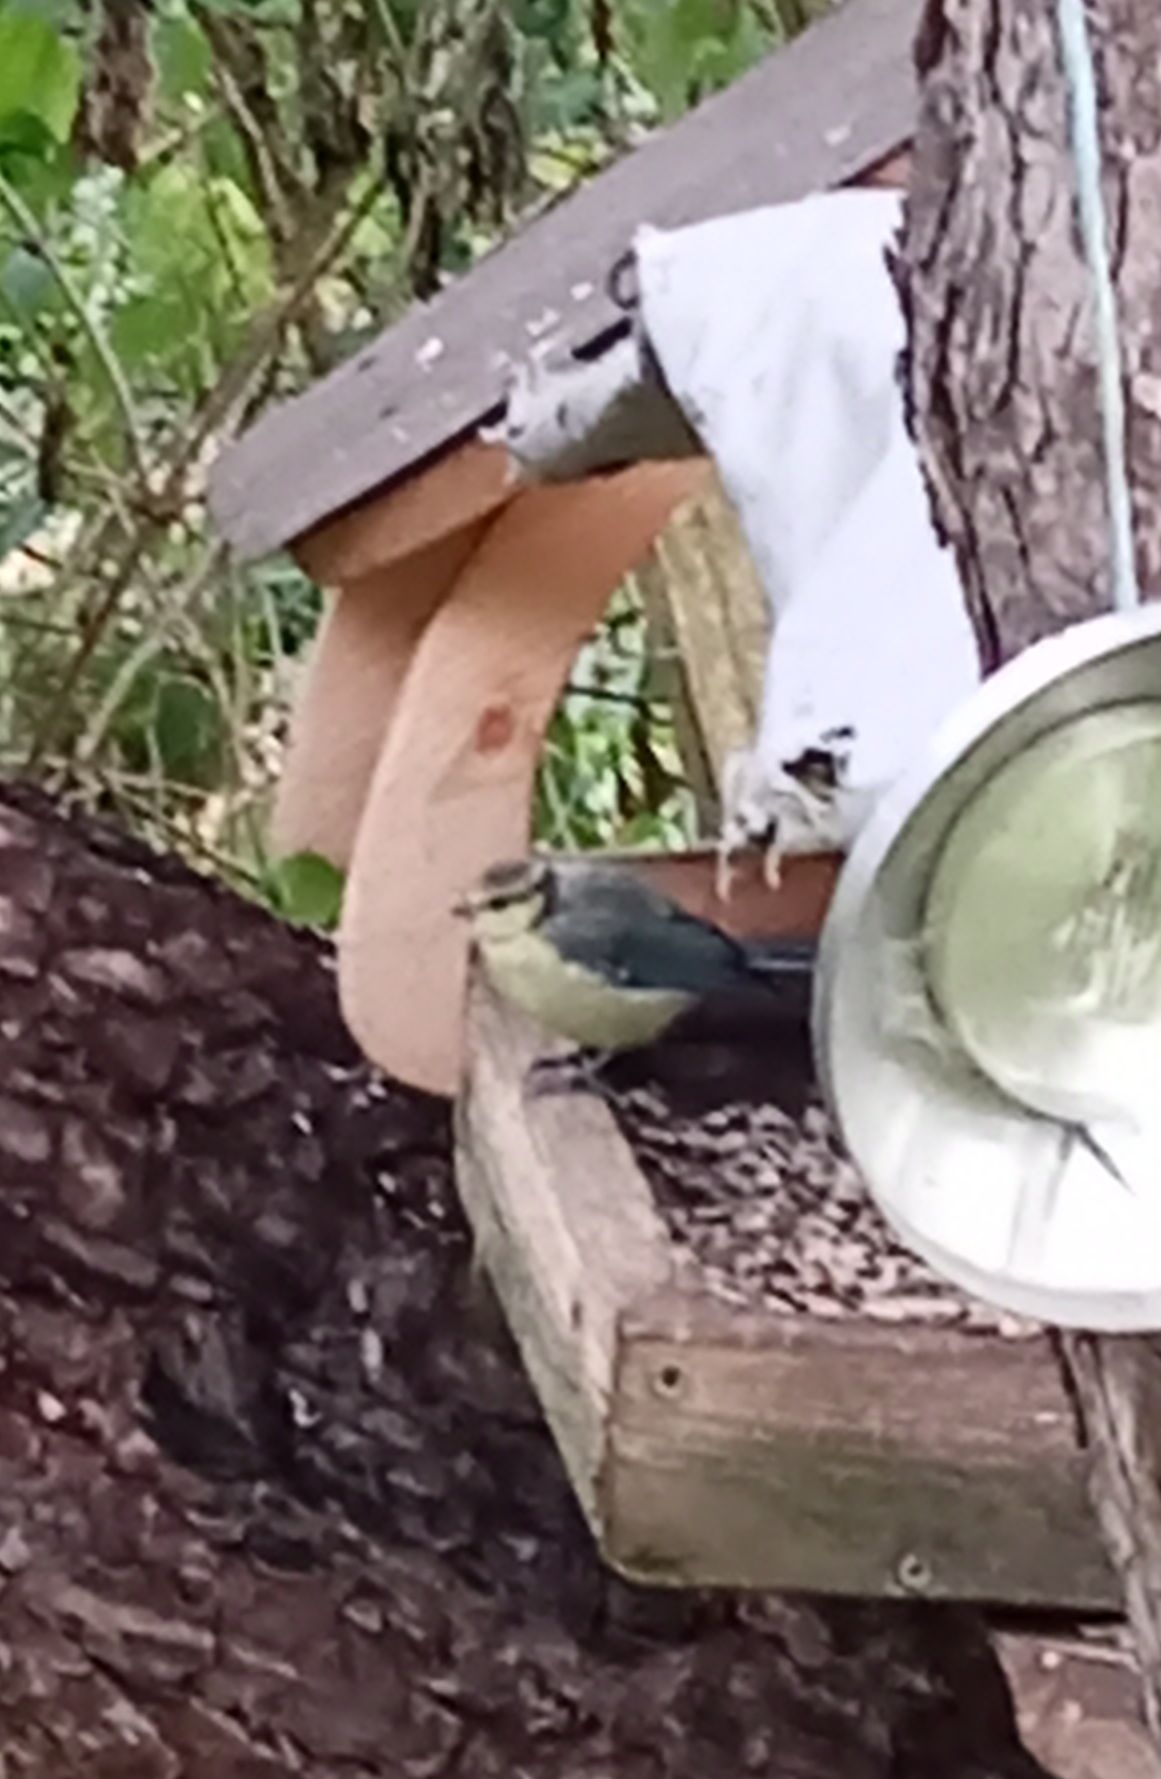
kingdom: Animalia
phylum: Chordata
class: Aves
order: Passeriformes
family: Paridae
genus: Cyanistes
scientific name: Cyanistes caeruleus
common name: Eurasian blue tit
